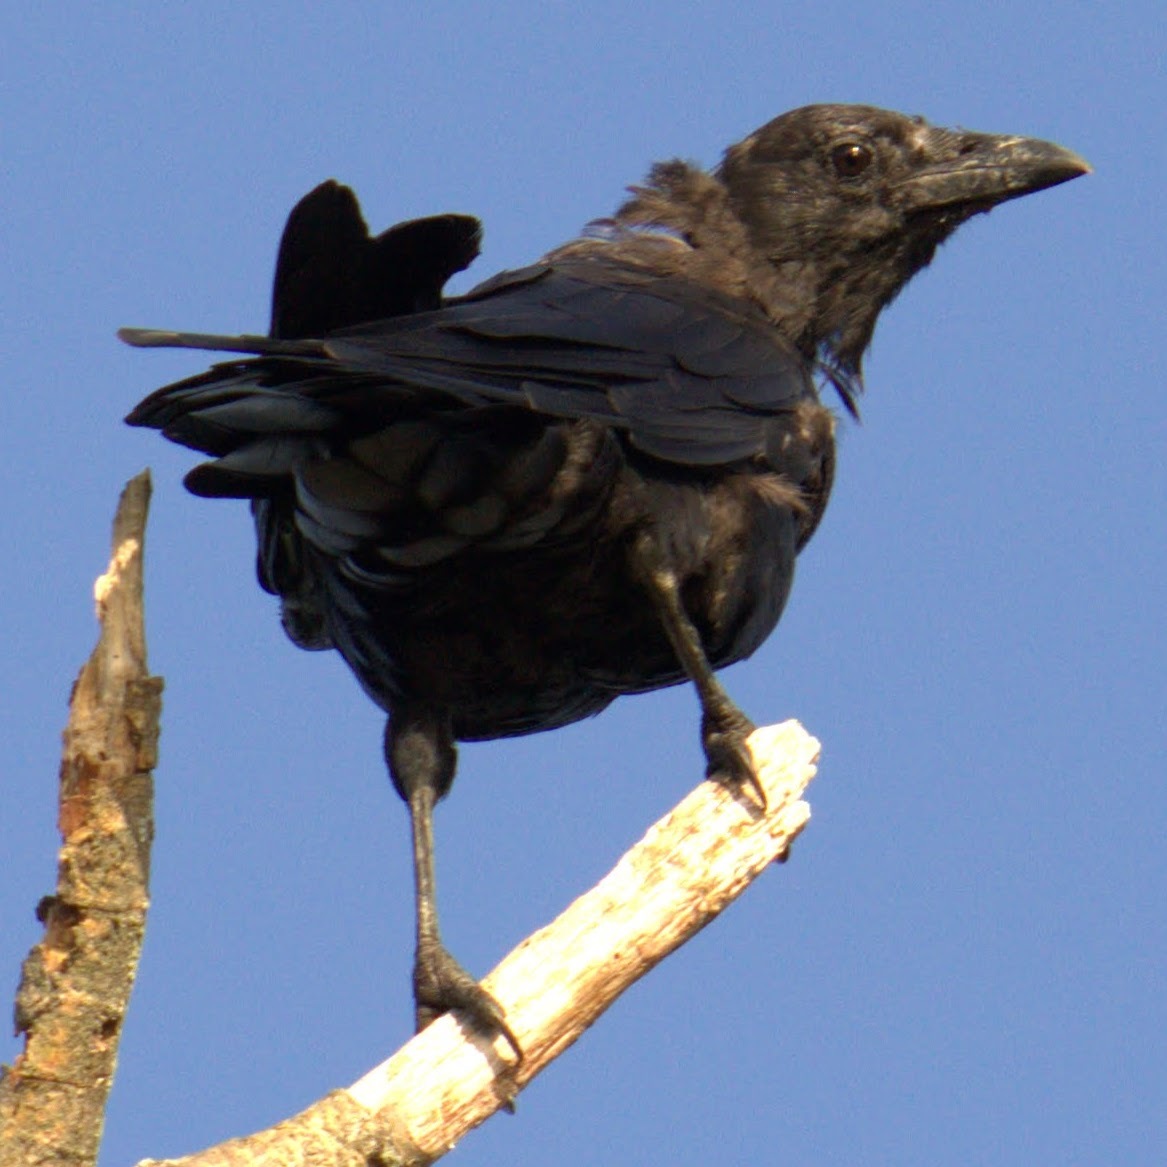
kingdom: Animalia
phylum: Chordata
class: Aves
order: Passeriformes
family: Corvidae
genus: Corvus
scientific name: Corvus brachyrhynchos
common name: American crow
